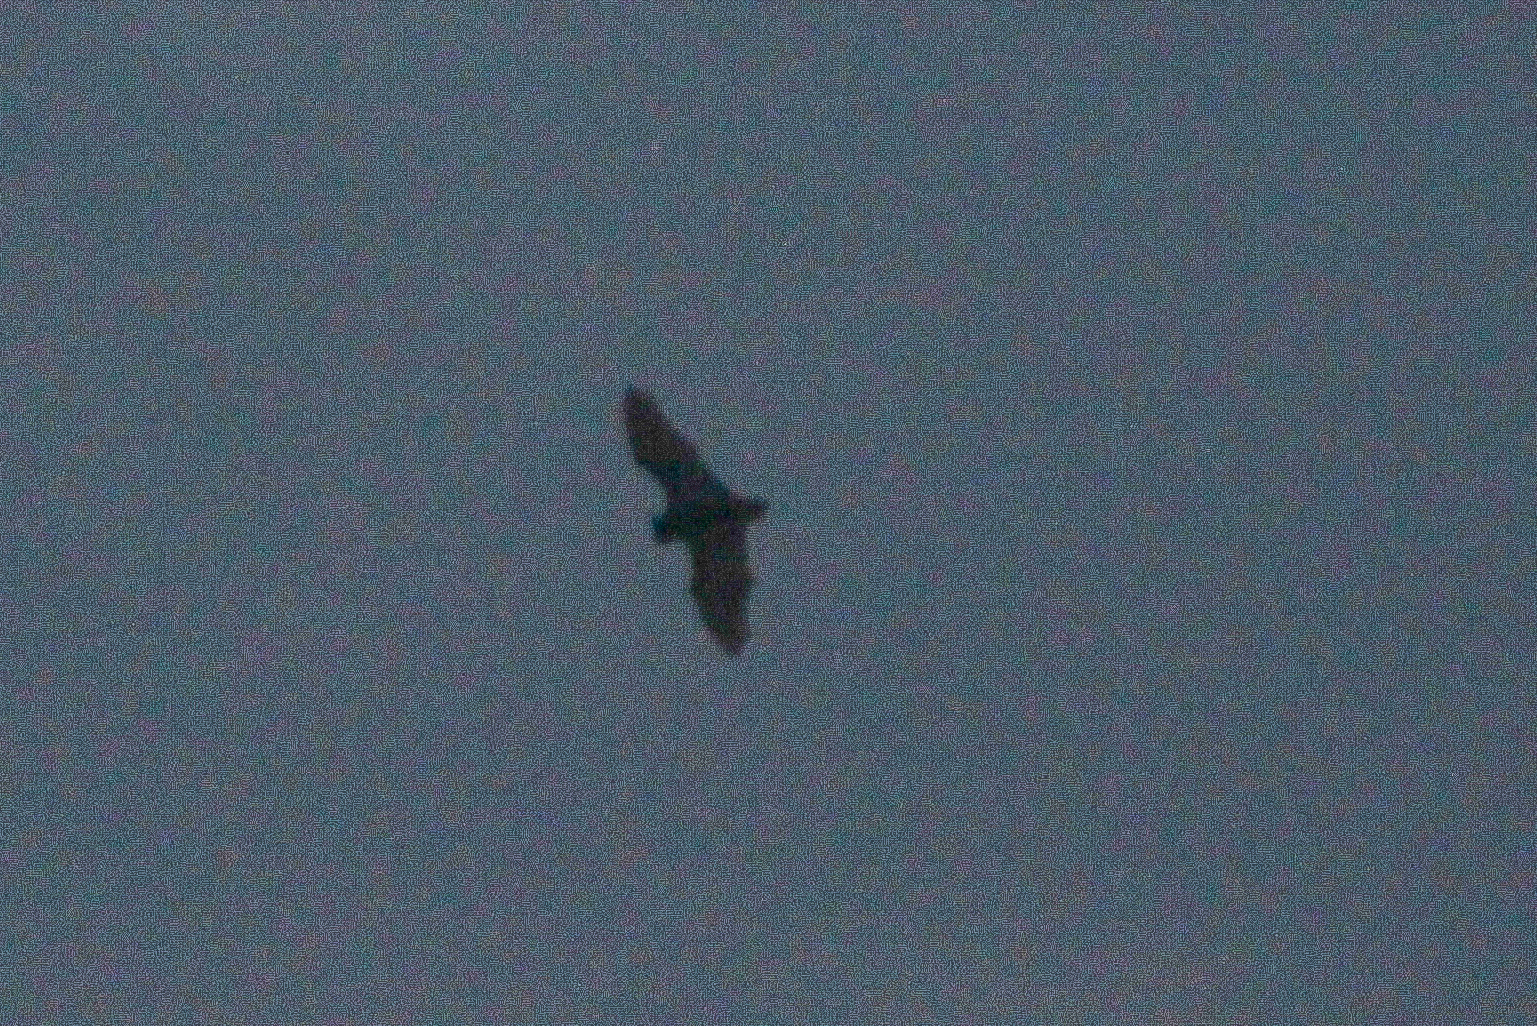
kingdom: Animalia
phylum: Chordata
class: Mammalia
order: Chiroptera
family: Vespertilionidae
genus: Pipistrellus
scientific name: Pipistrellus abramus
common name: Japanese pipistrelle
